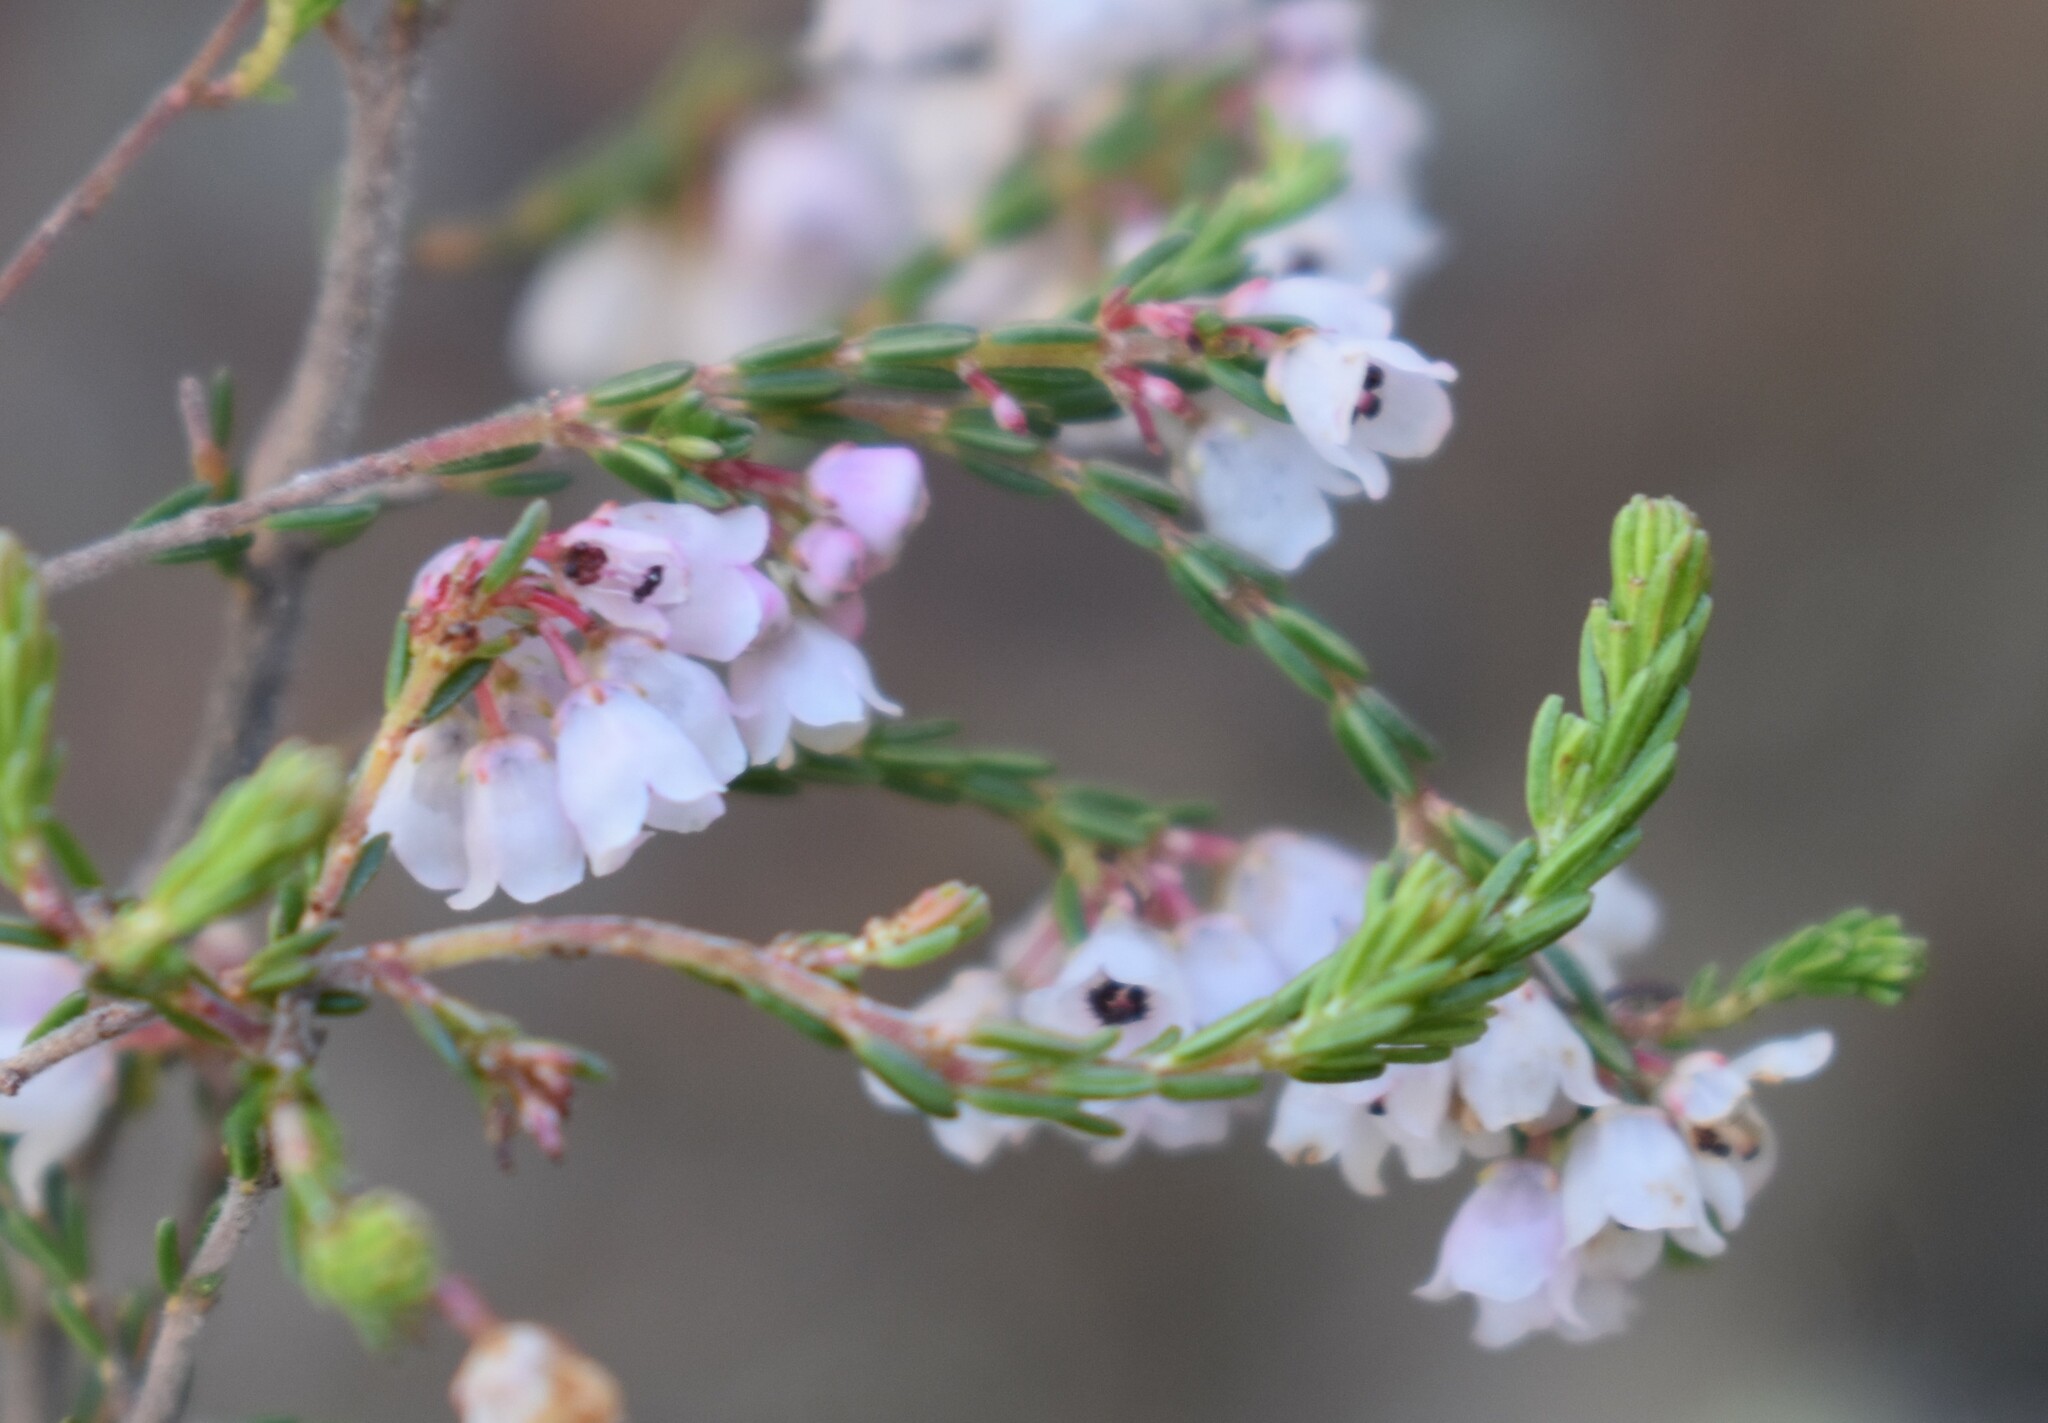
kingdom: Plantae
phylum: Tracheophyta
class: Magnoliopsida
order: Ericales
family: Ericaceae
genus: Erica
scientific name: Erica quadrangularis
